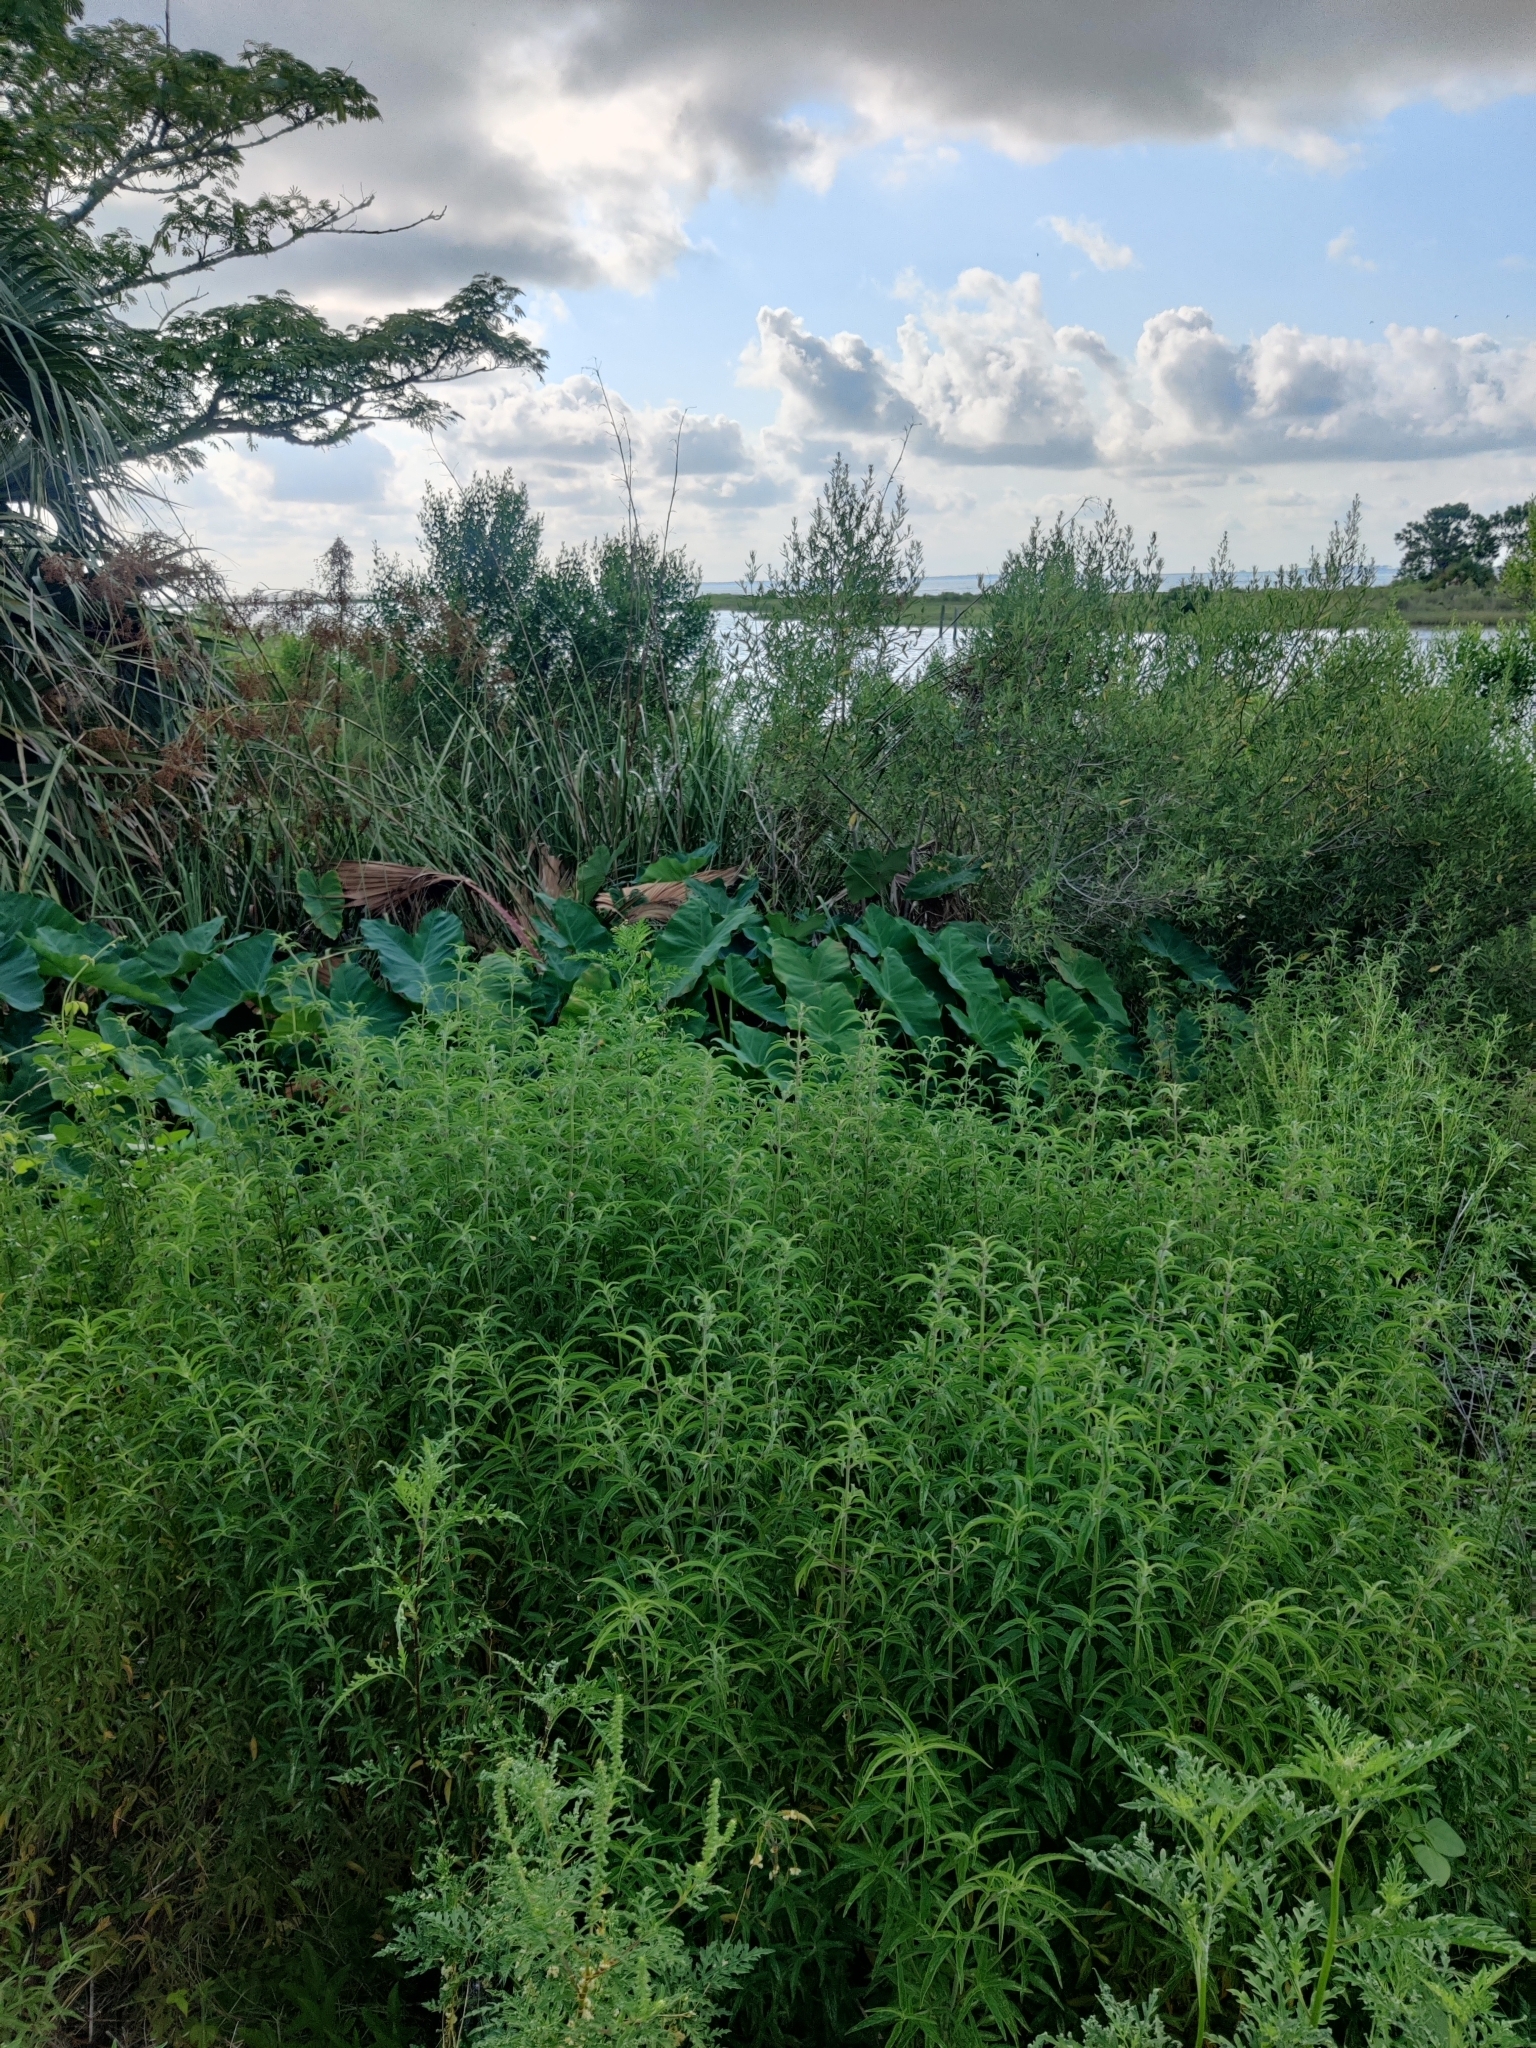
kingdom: Plantae
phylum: Tracheophyta
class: Magnoliopsida
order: Lamiales
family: Lamiaceae
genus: Monarda
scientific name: Monarda punctata
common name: Dotted monarda
